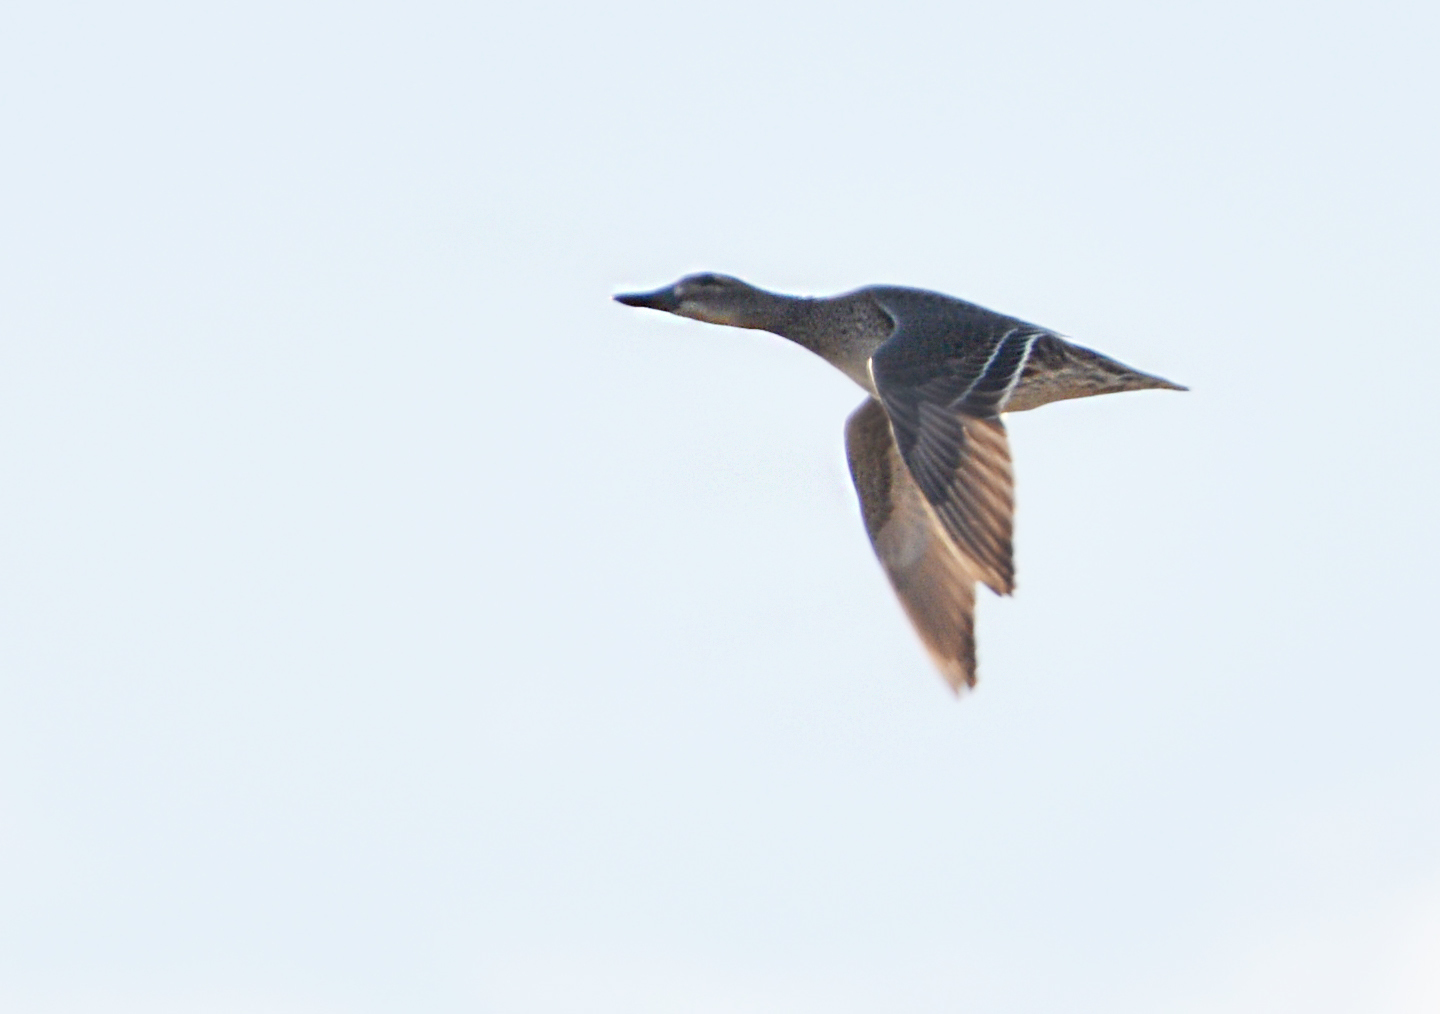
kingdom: Animalia
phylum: Chordata
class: Aves
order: Anseriformes
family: Anatidae
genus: Spatula
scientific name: Spatula querquedula
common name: Garganey
